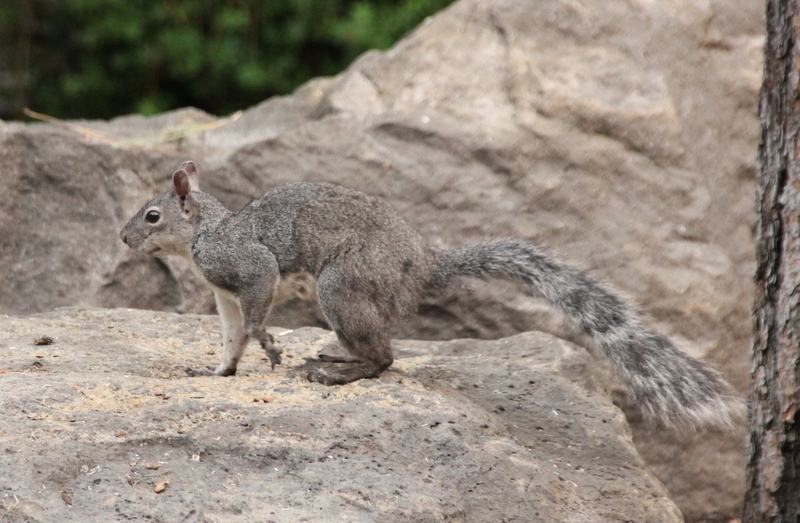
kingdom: Animalia
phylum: Chordata
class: Mammalia
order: Rodentia
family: Sciuridae
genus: Sciurus
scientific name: Sciurus griseus
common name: Western gray squirrel
